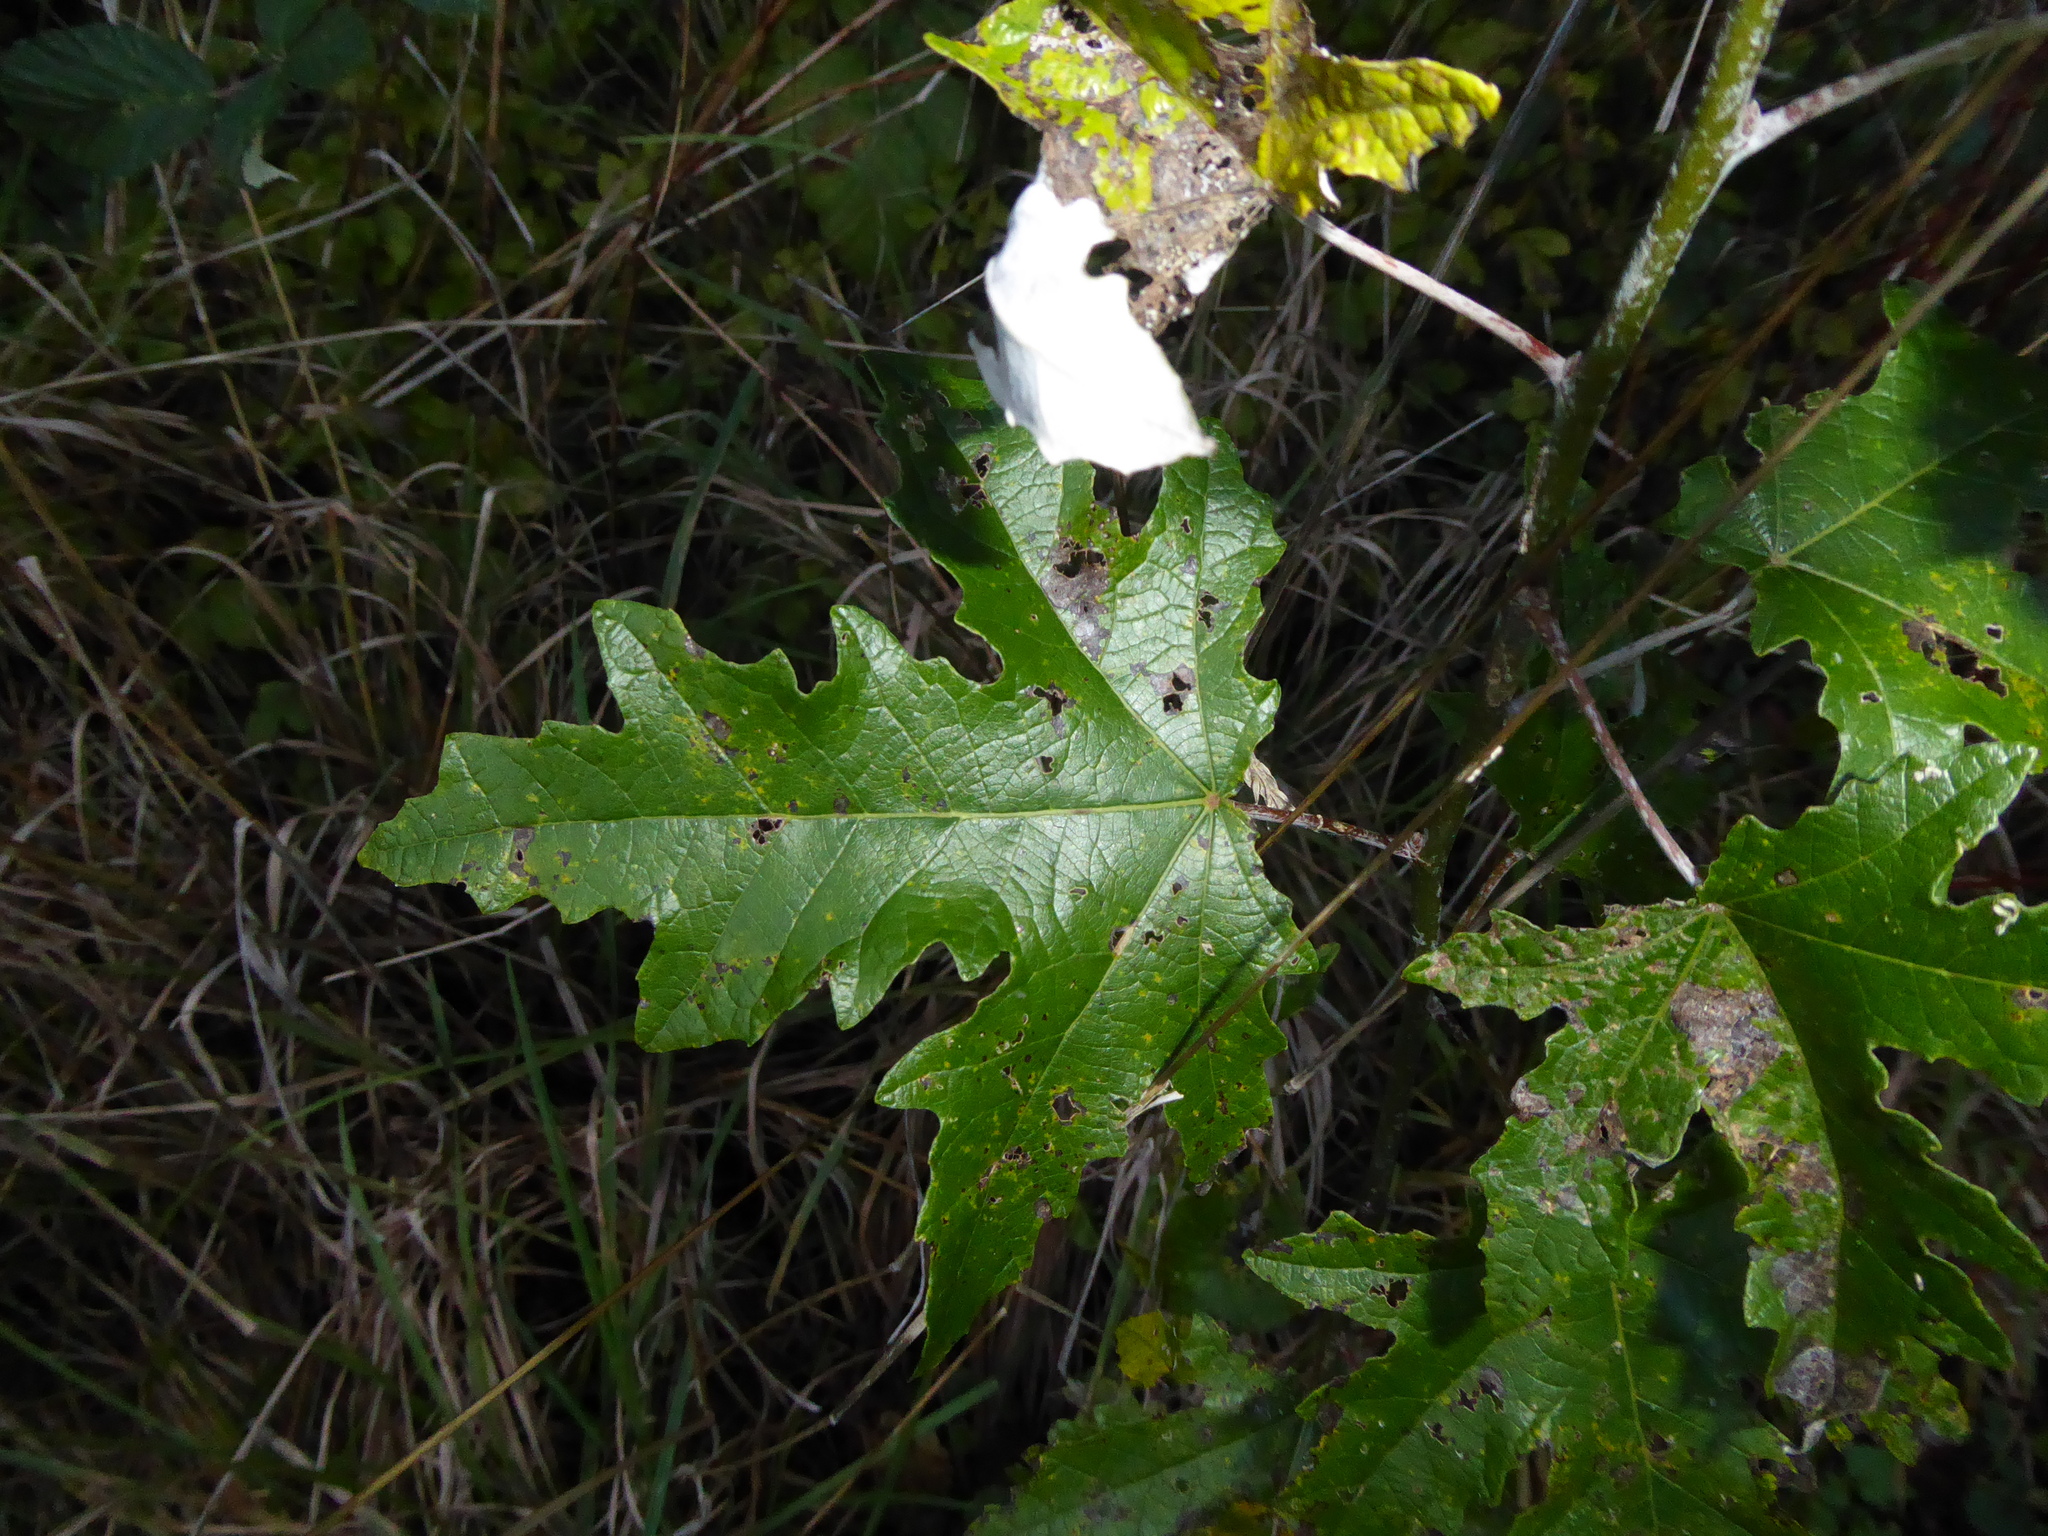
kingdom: Plantae
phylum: Tracheophyta
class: Magnoliopsida
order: Malpighiales
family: Salicaceae
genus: Populus
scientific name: Populus alba
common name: White poplar
